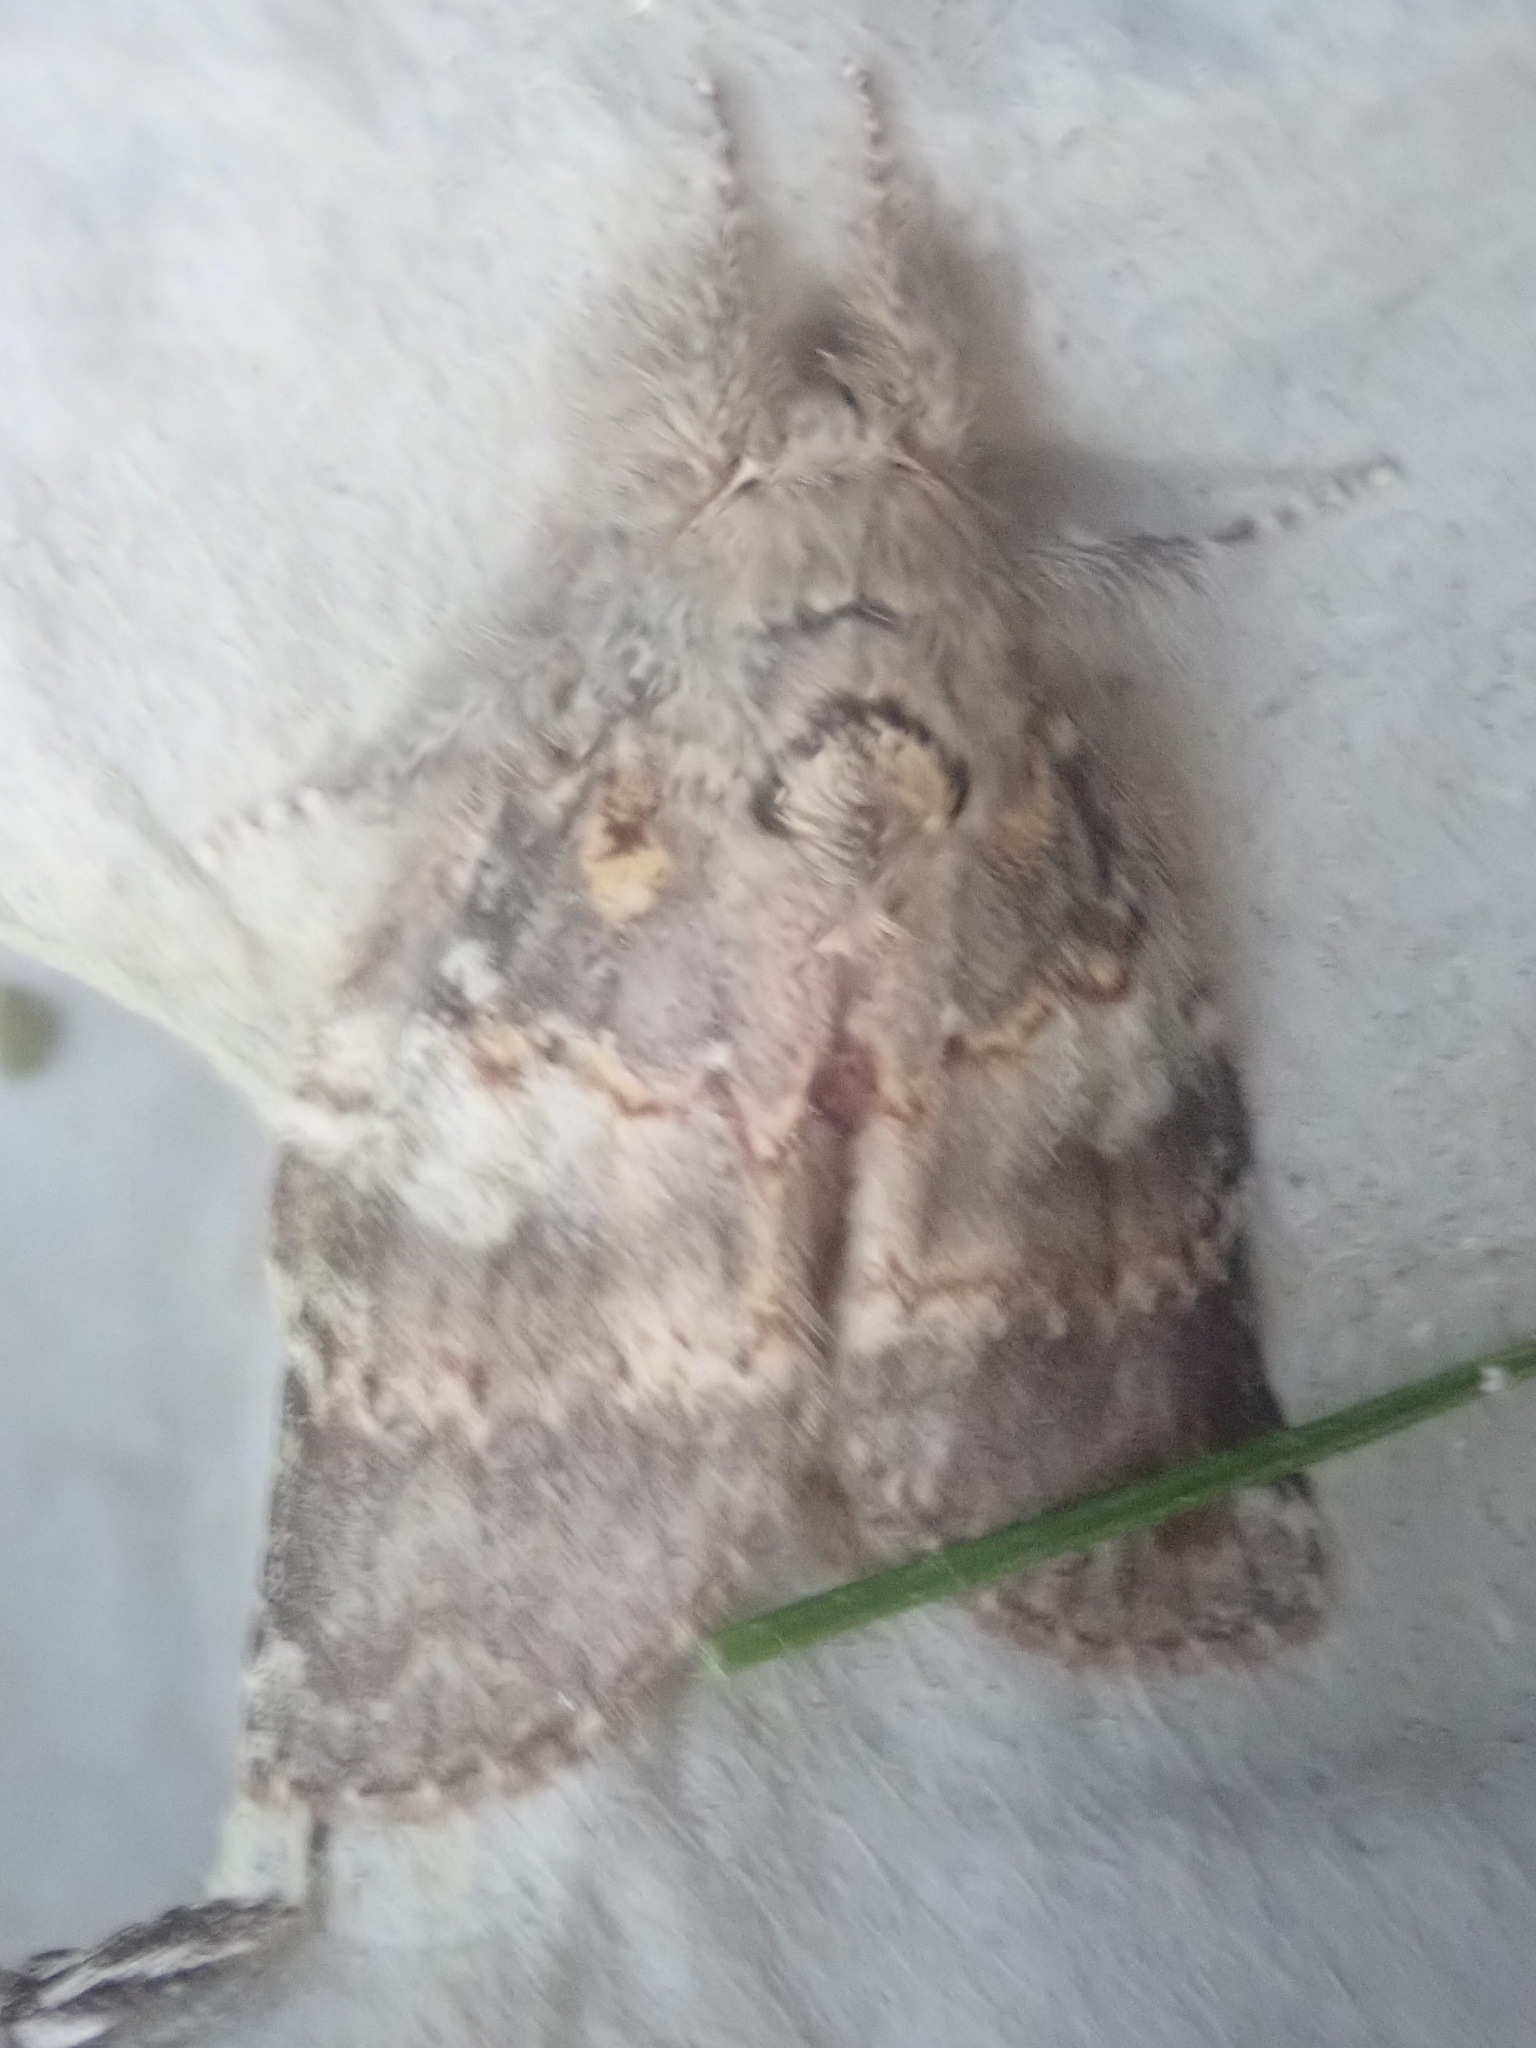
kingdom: Animalia
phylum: Arthropoda
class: Insecta
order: Lepidoptera
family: Notodontidae
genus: Peridea
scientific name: Peridea angulosa
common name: Angulose prominent
